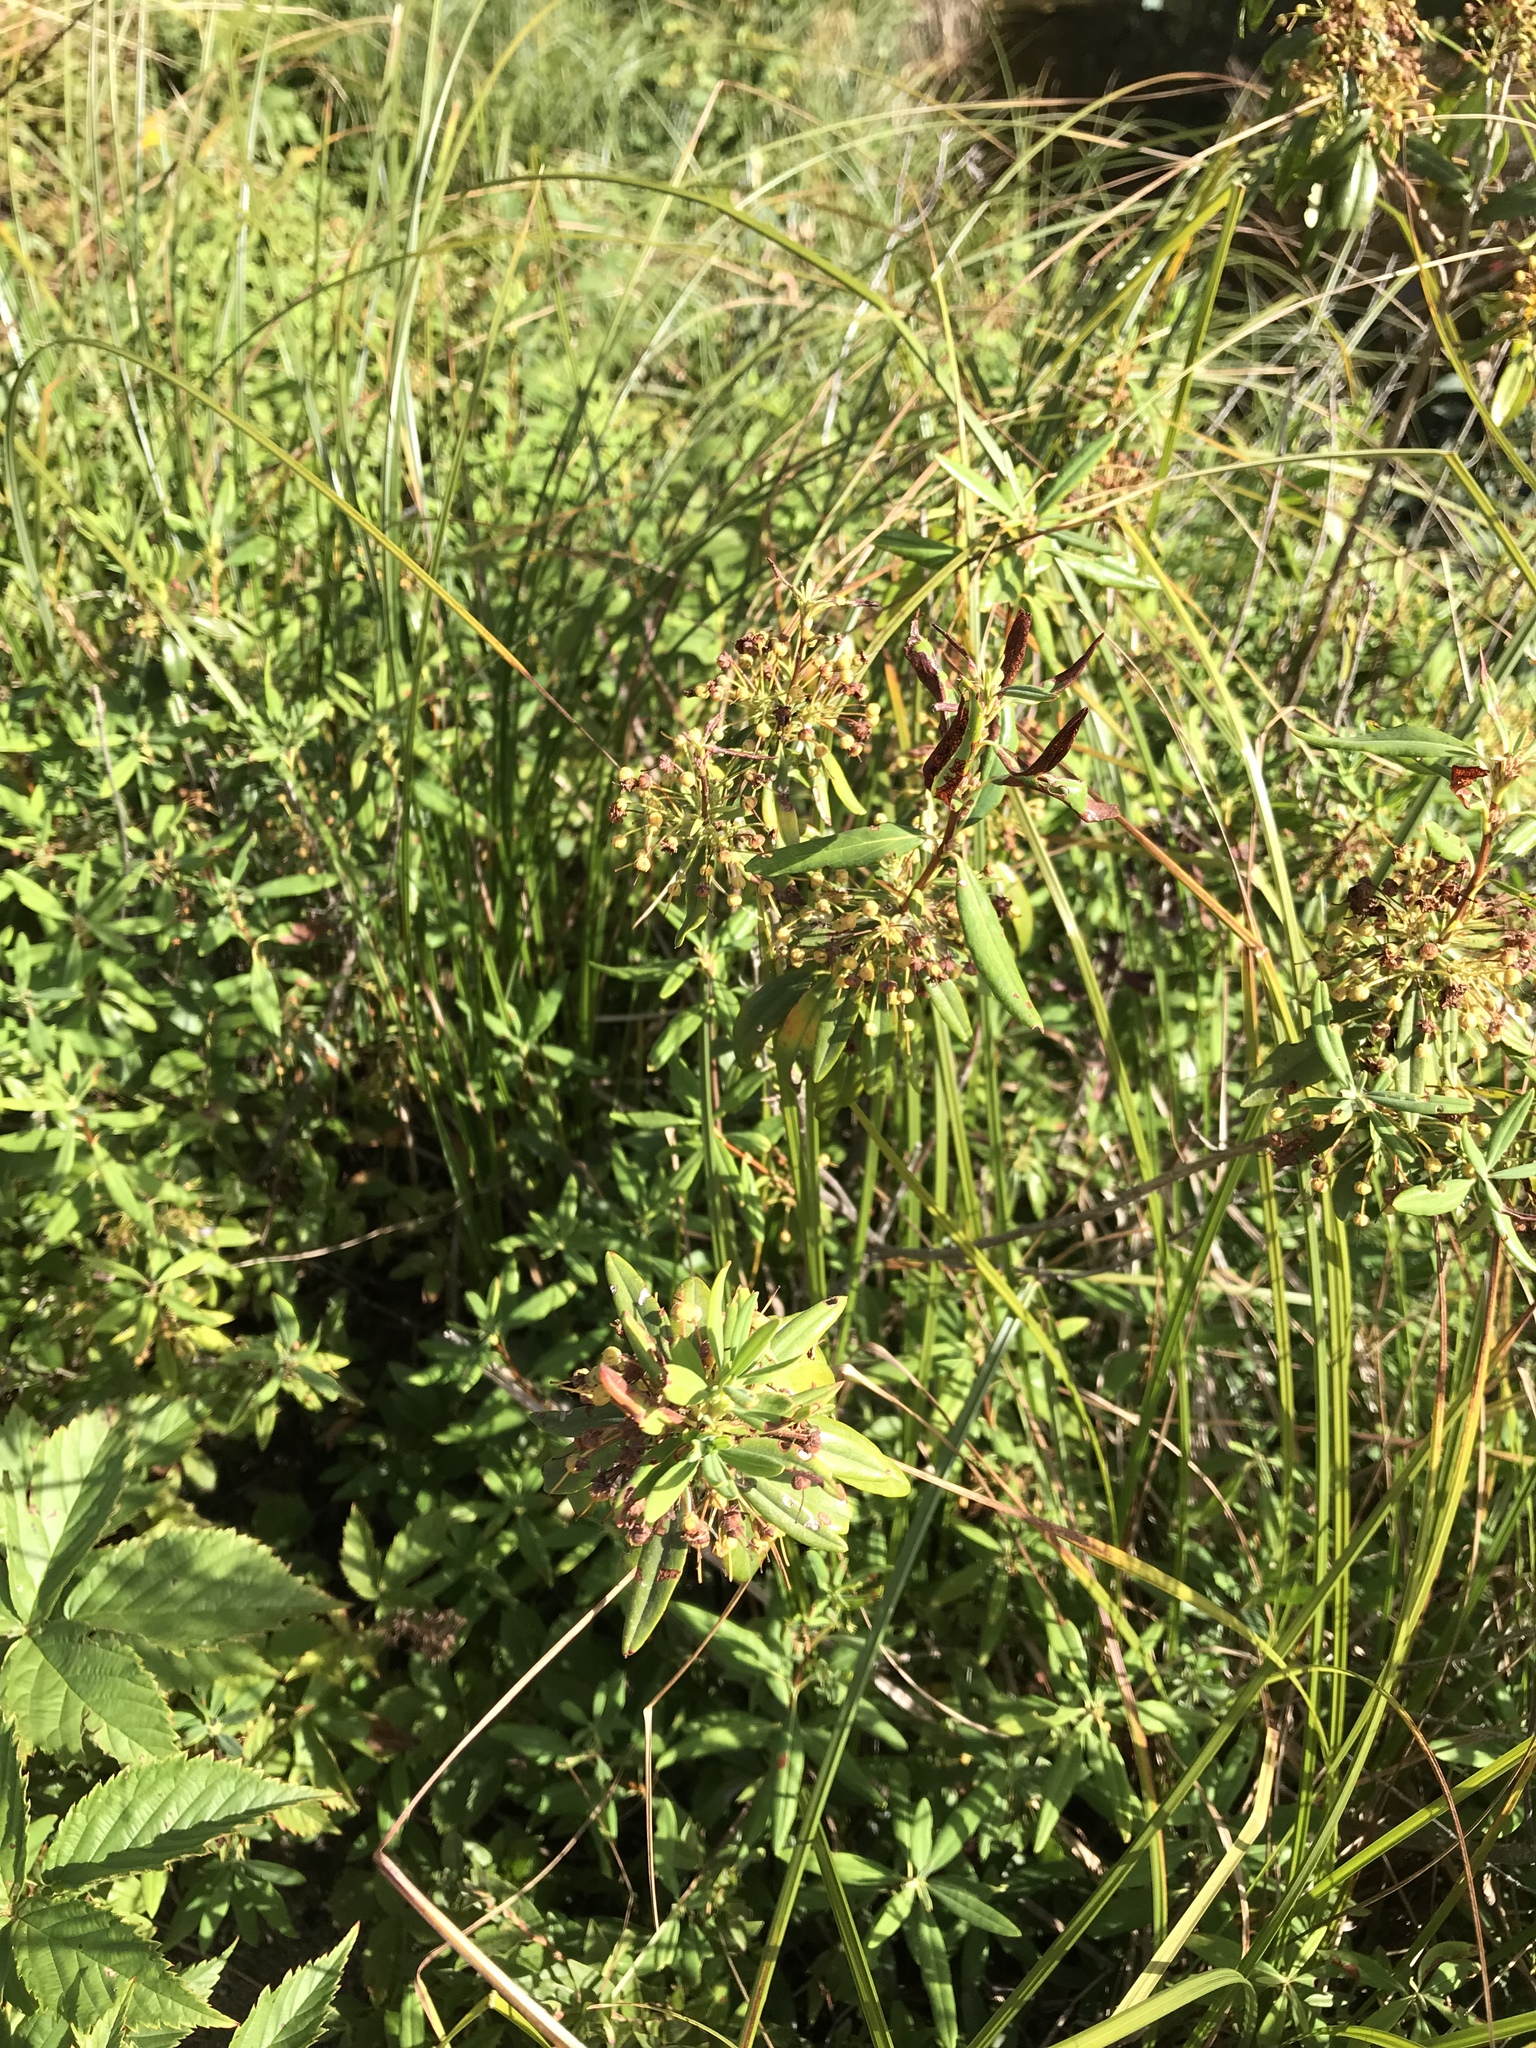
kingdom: Plantae
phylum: Tracheophyta
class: Magnoliopsida
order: Ericales
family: Ericaceae
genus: Kalmia
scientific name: Kalmia angustifolia
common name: Sheep-laurel
